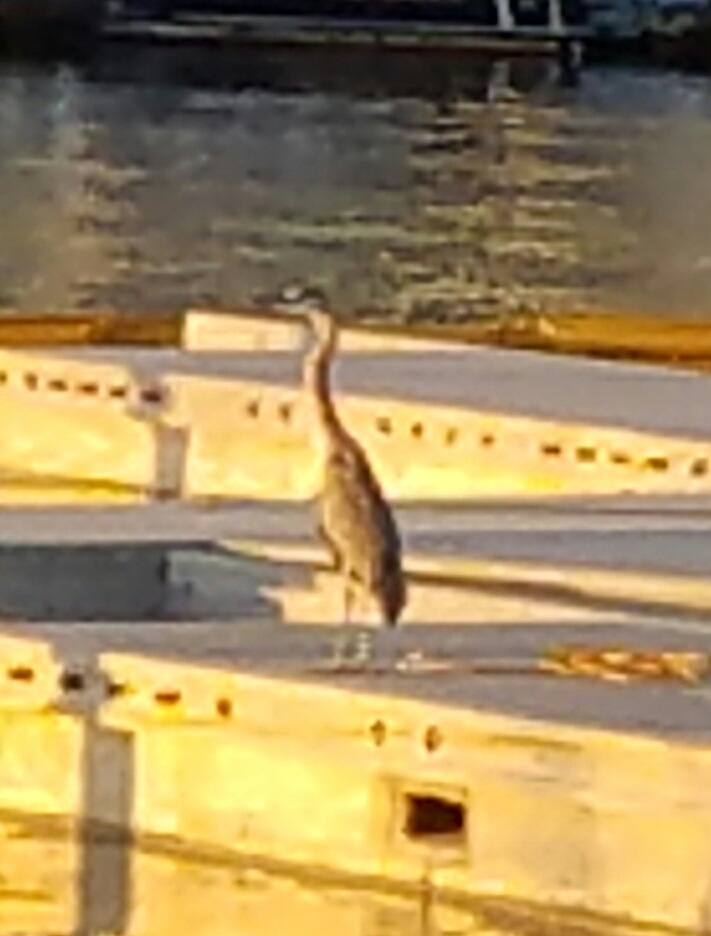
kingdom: Animalia
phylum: Chordata
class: Aves
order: Pelecaniformes
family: Ardeidae
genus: Ardea
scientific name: Ardea herodias
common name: Great blue heron
